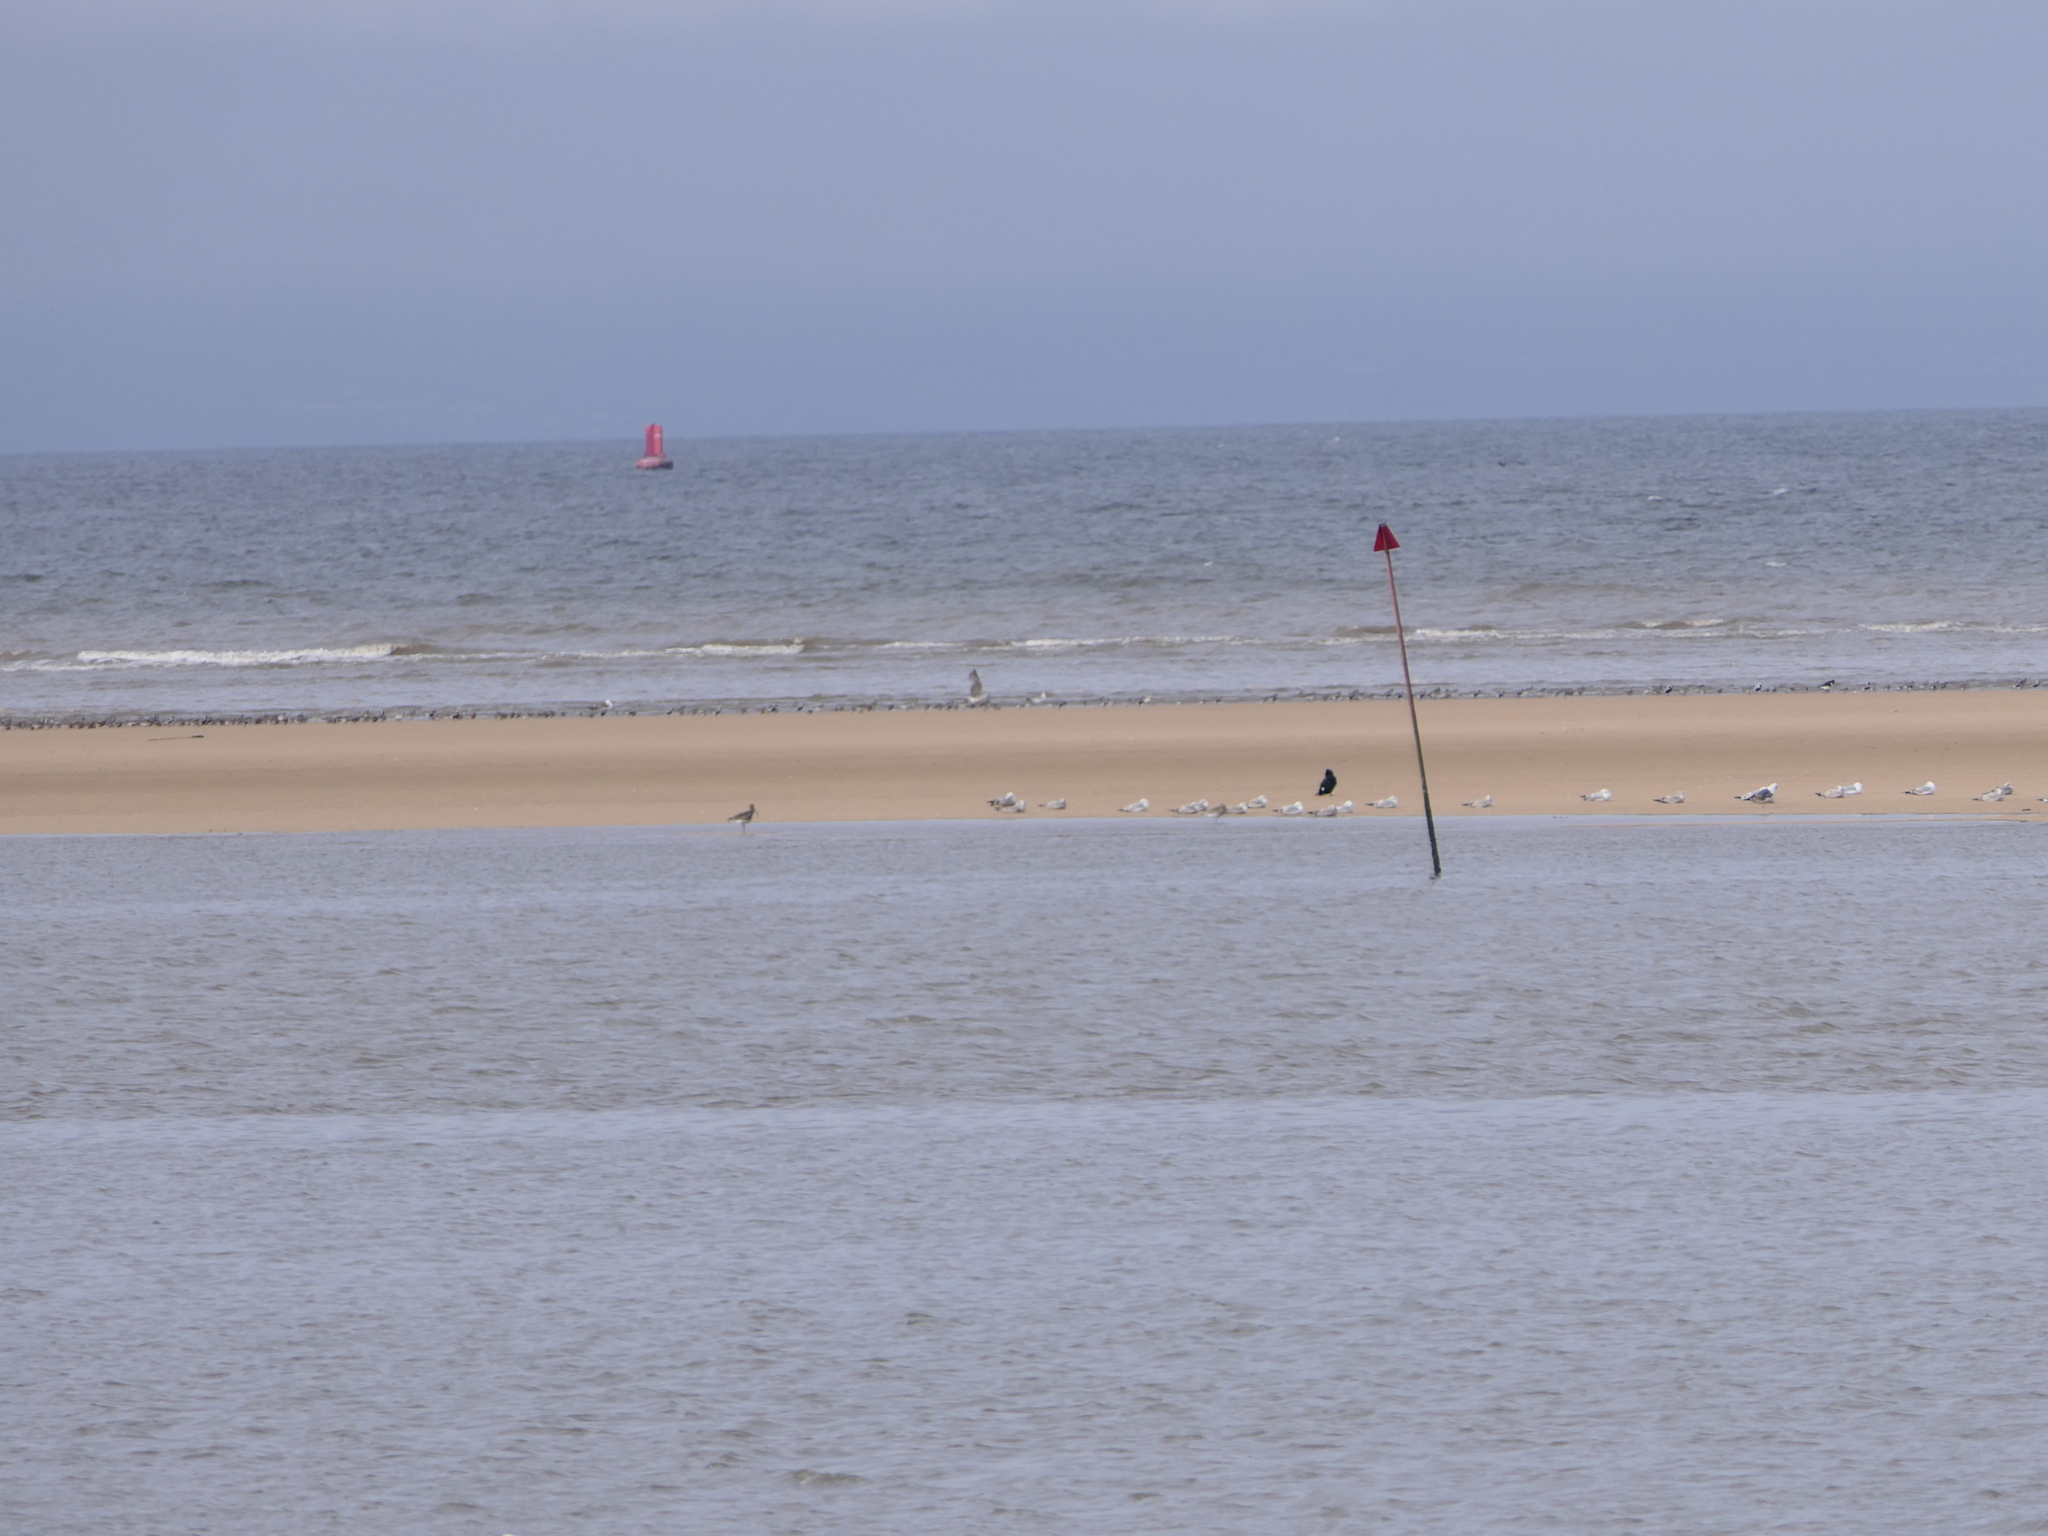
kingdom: Animalia
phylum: Chordata
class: Aves
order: Charadriiformes
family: Scolopacidae
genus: Numenius
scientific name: Numenius arquata
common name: Eurasian curlew
